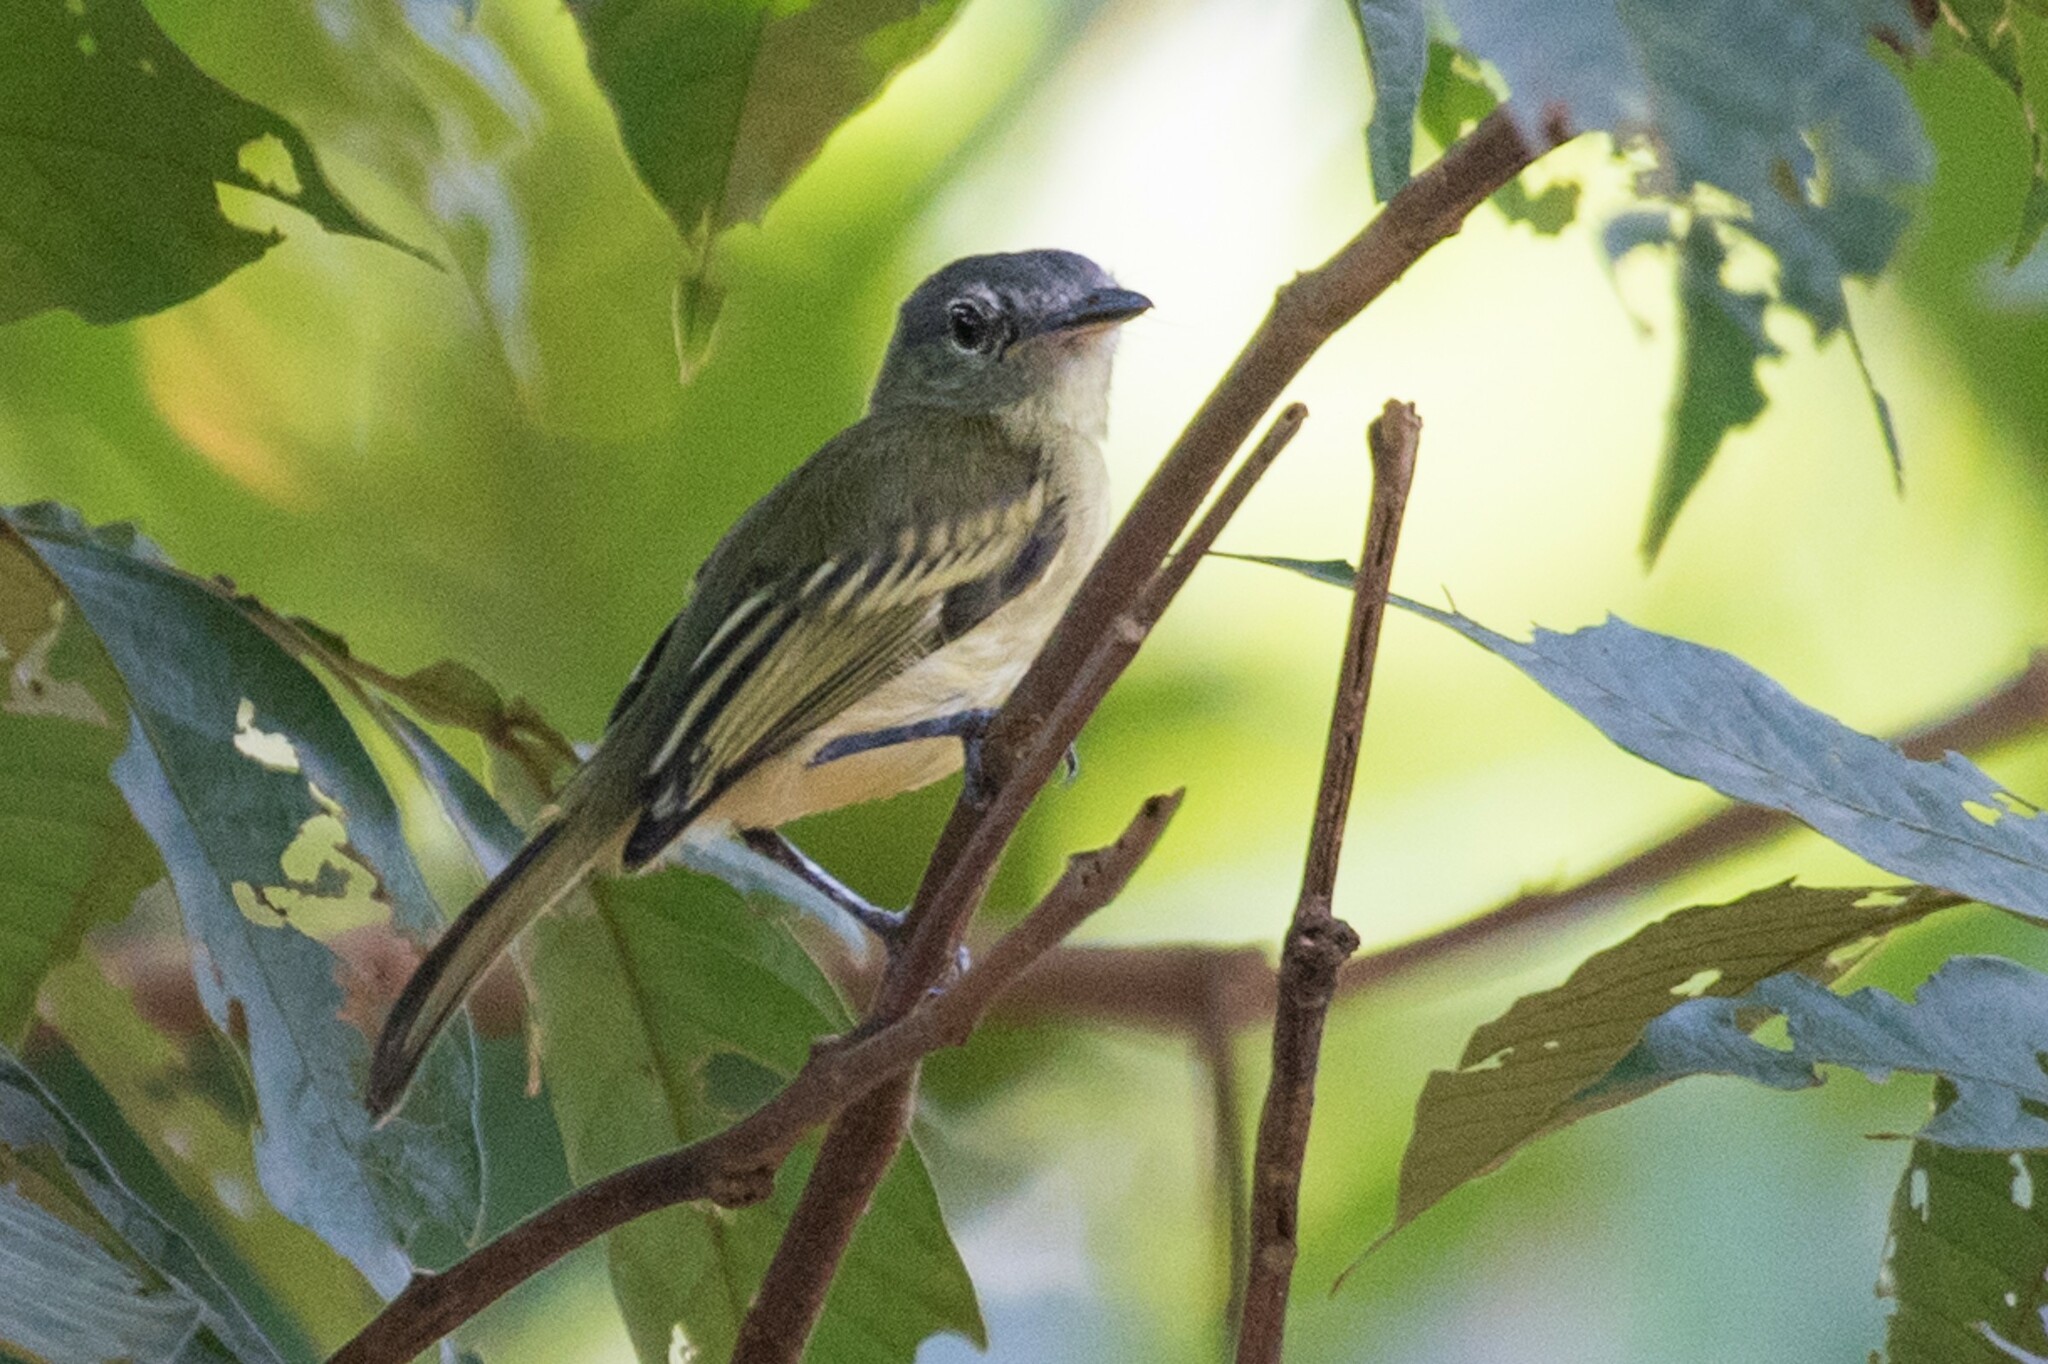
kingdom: Animalia
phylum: Chordata
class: Aves
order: Passeriformes
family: Tyrannidae
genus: Tolmomyias
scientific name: Tolmomyias poliocephalus
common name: Grey-crowned flatbill
